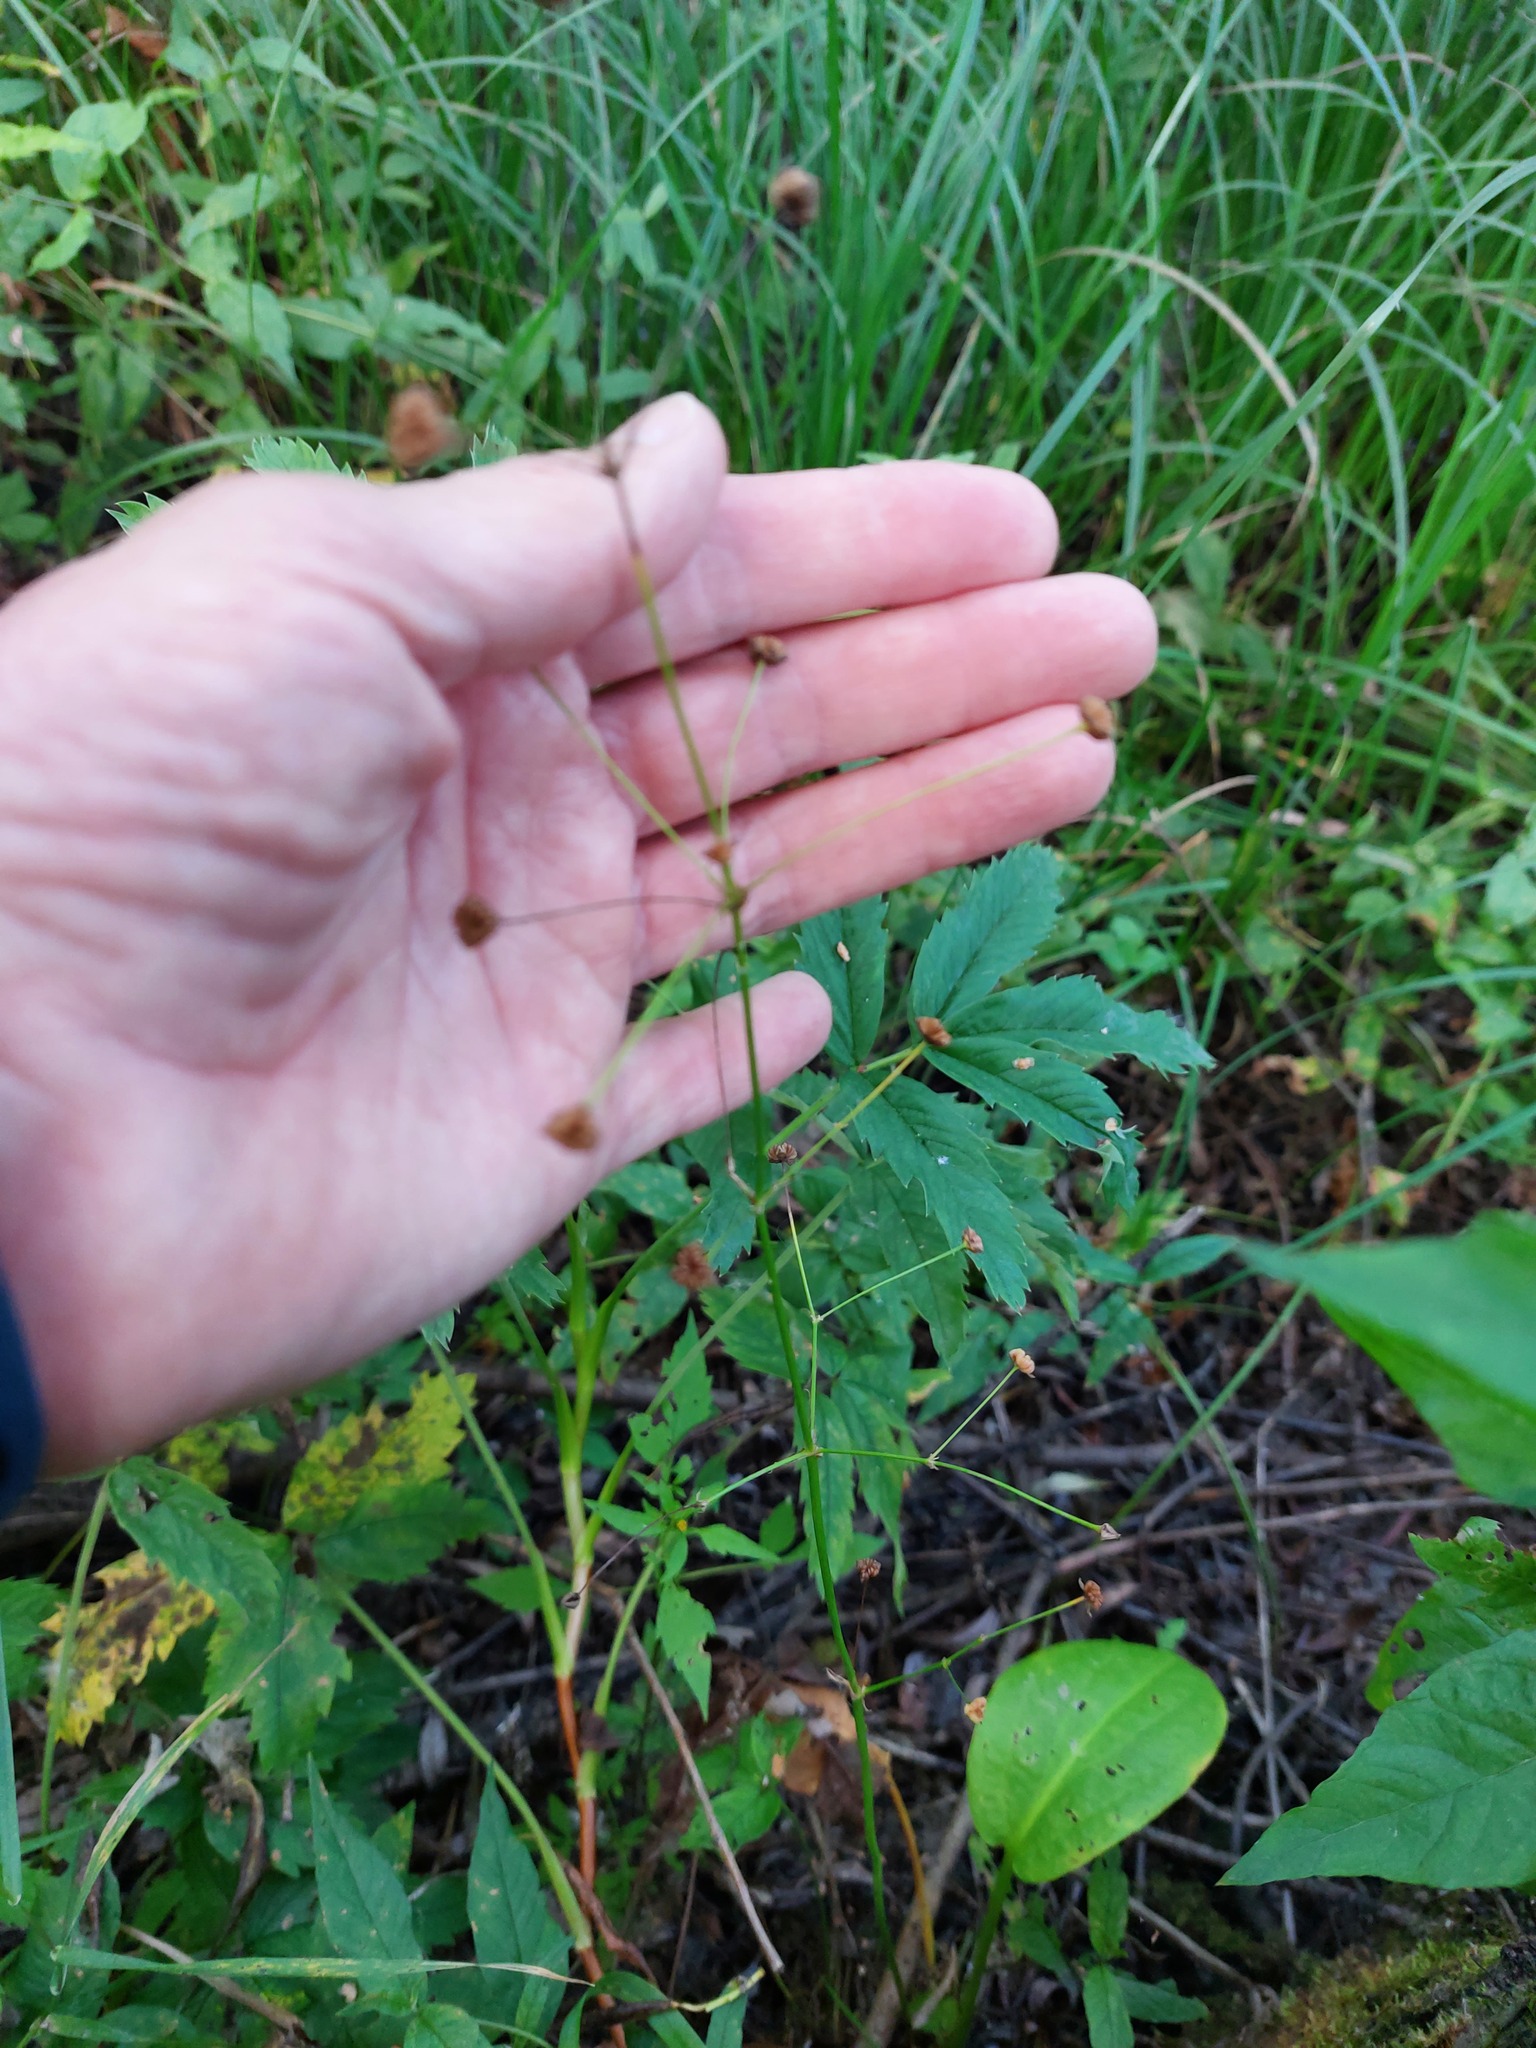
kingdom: Plantae
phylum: Tracheophyta
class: Liliopsida
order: Alismatales
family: Alismataceae
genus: Alisma
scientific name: Alisma plantago-aquatica
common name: Water-plantain
